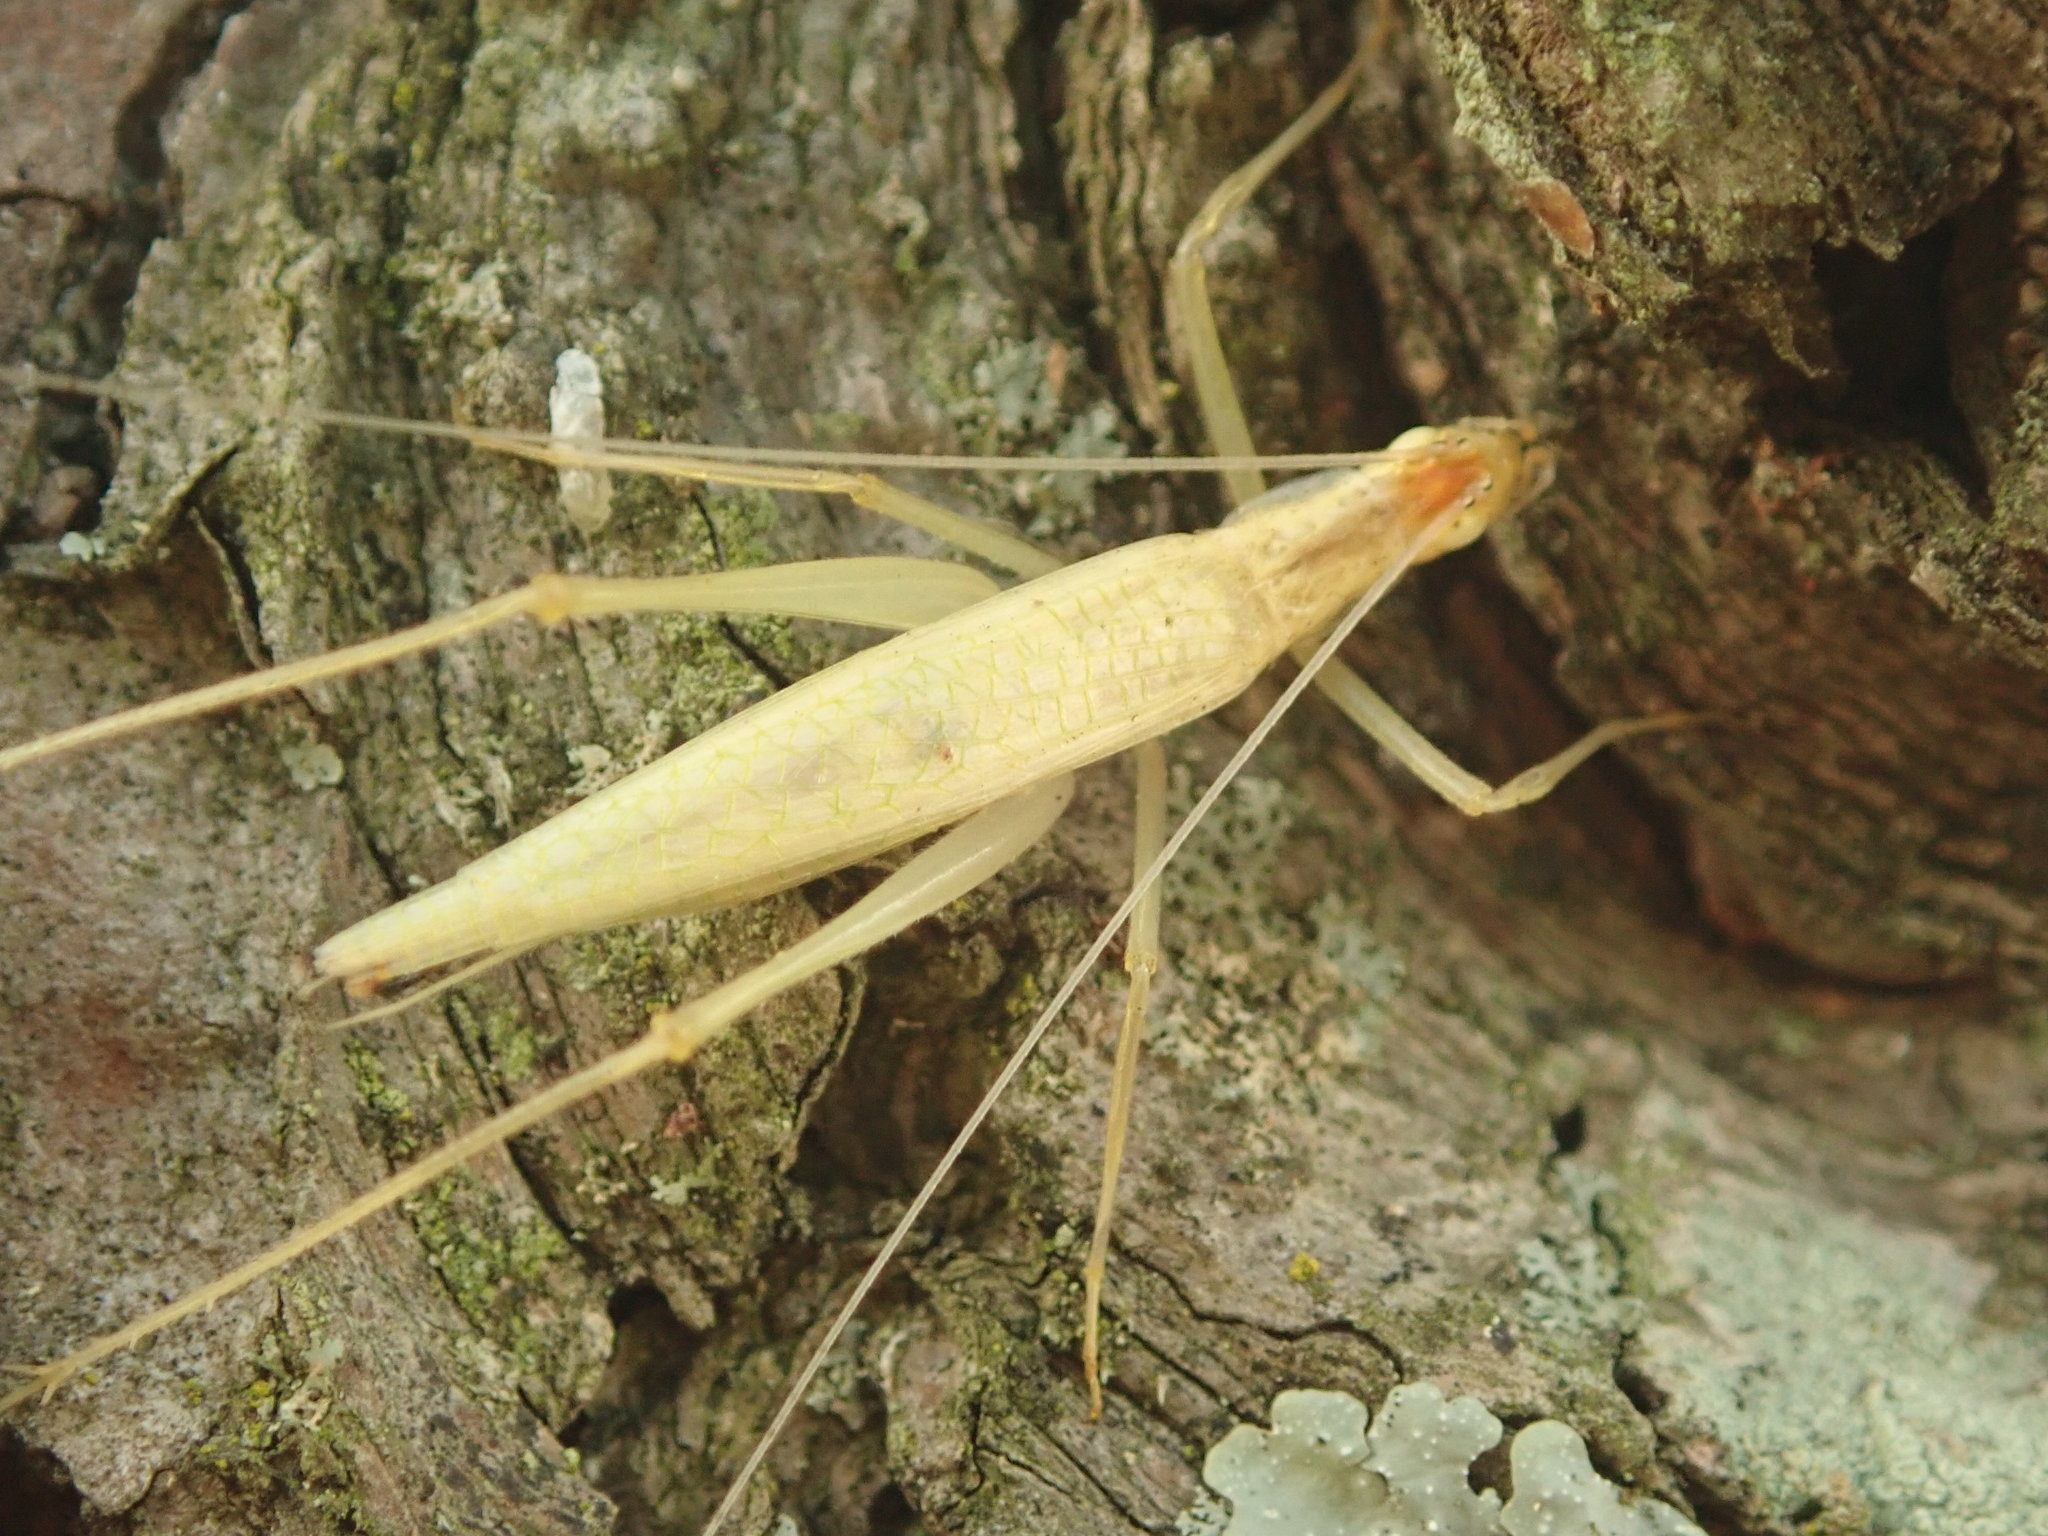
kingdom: Animalia
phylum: Arthropoda
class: Insecta
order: Orthoptera
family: Gryllidae
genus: Oecanthus
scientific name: Oecanthus niveus
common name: Narrow-winged tree cricket
